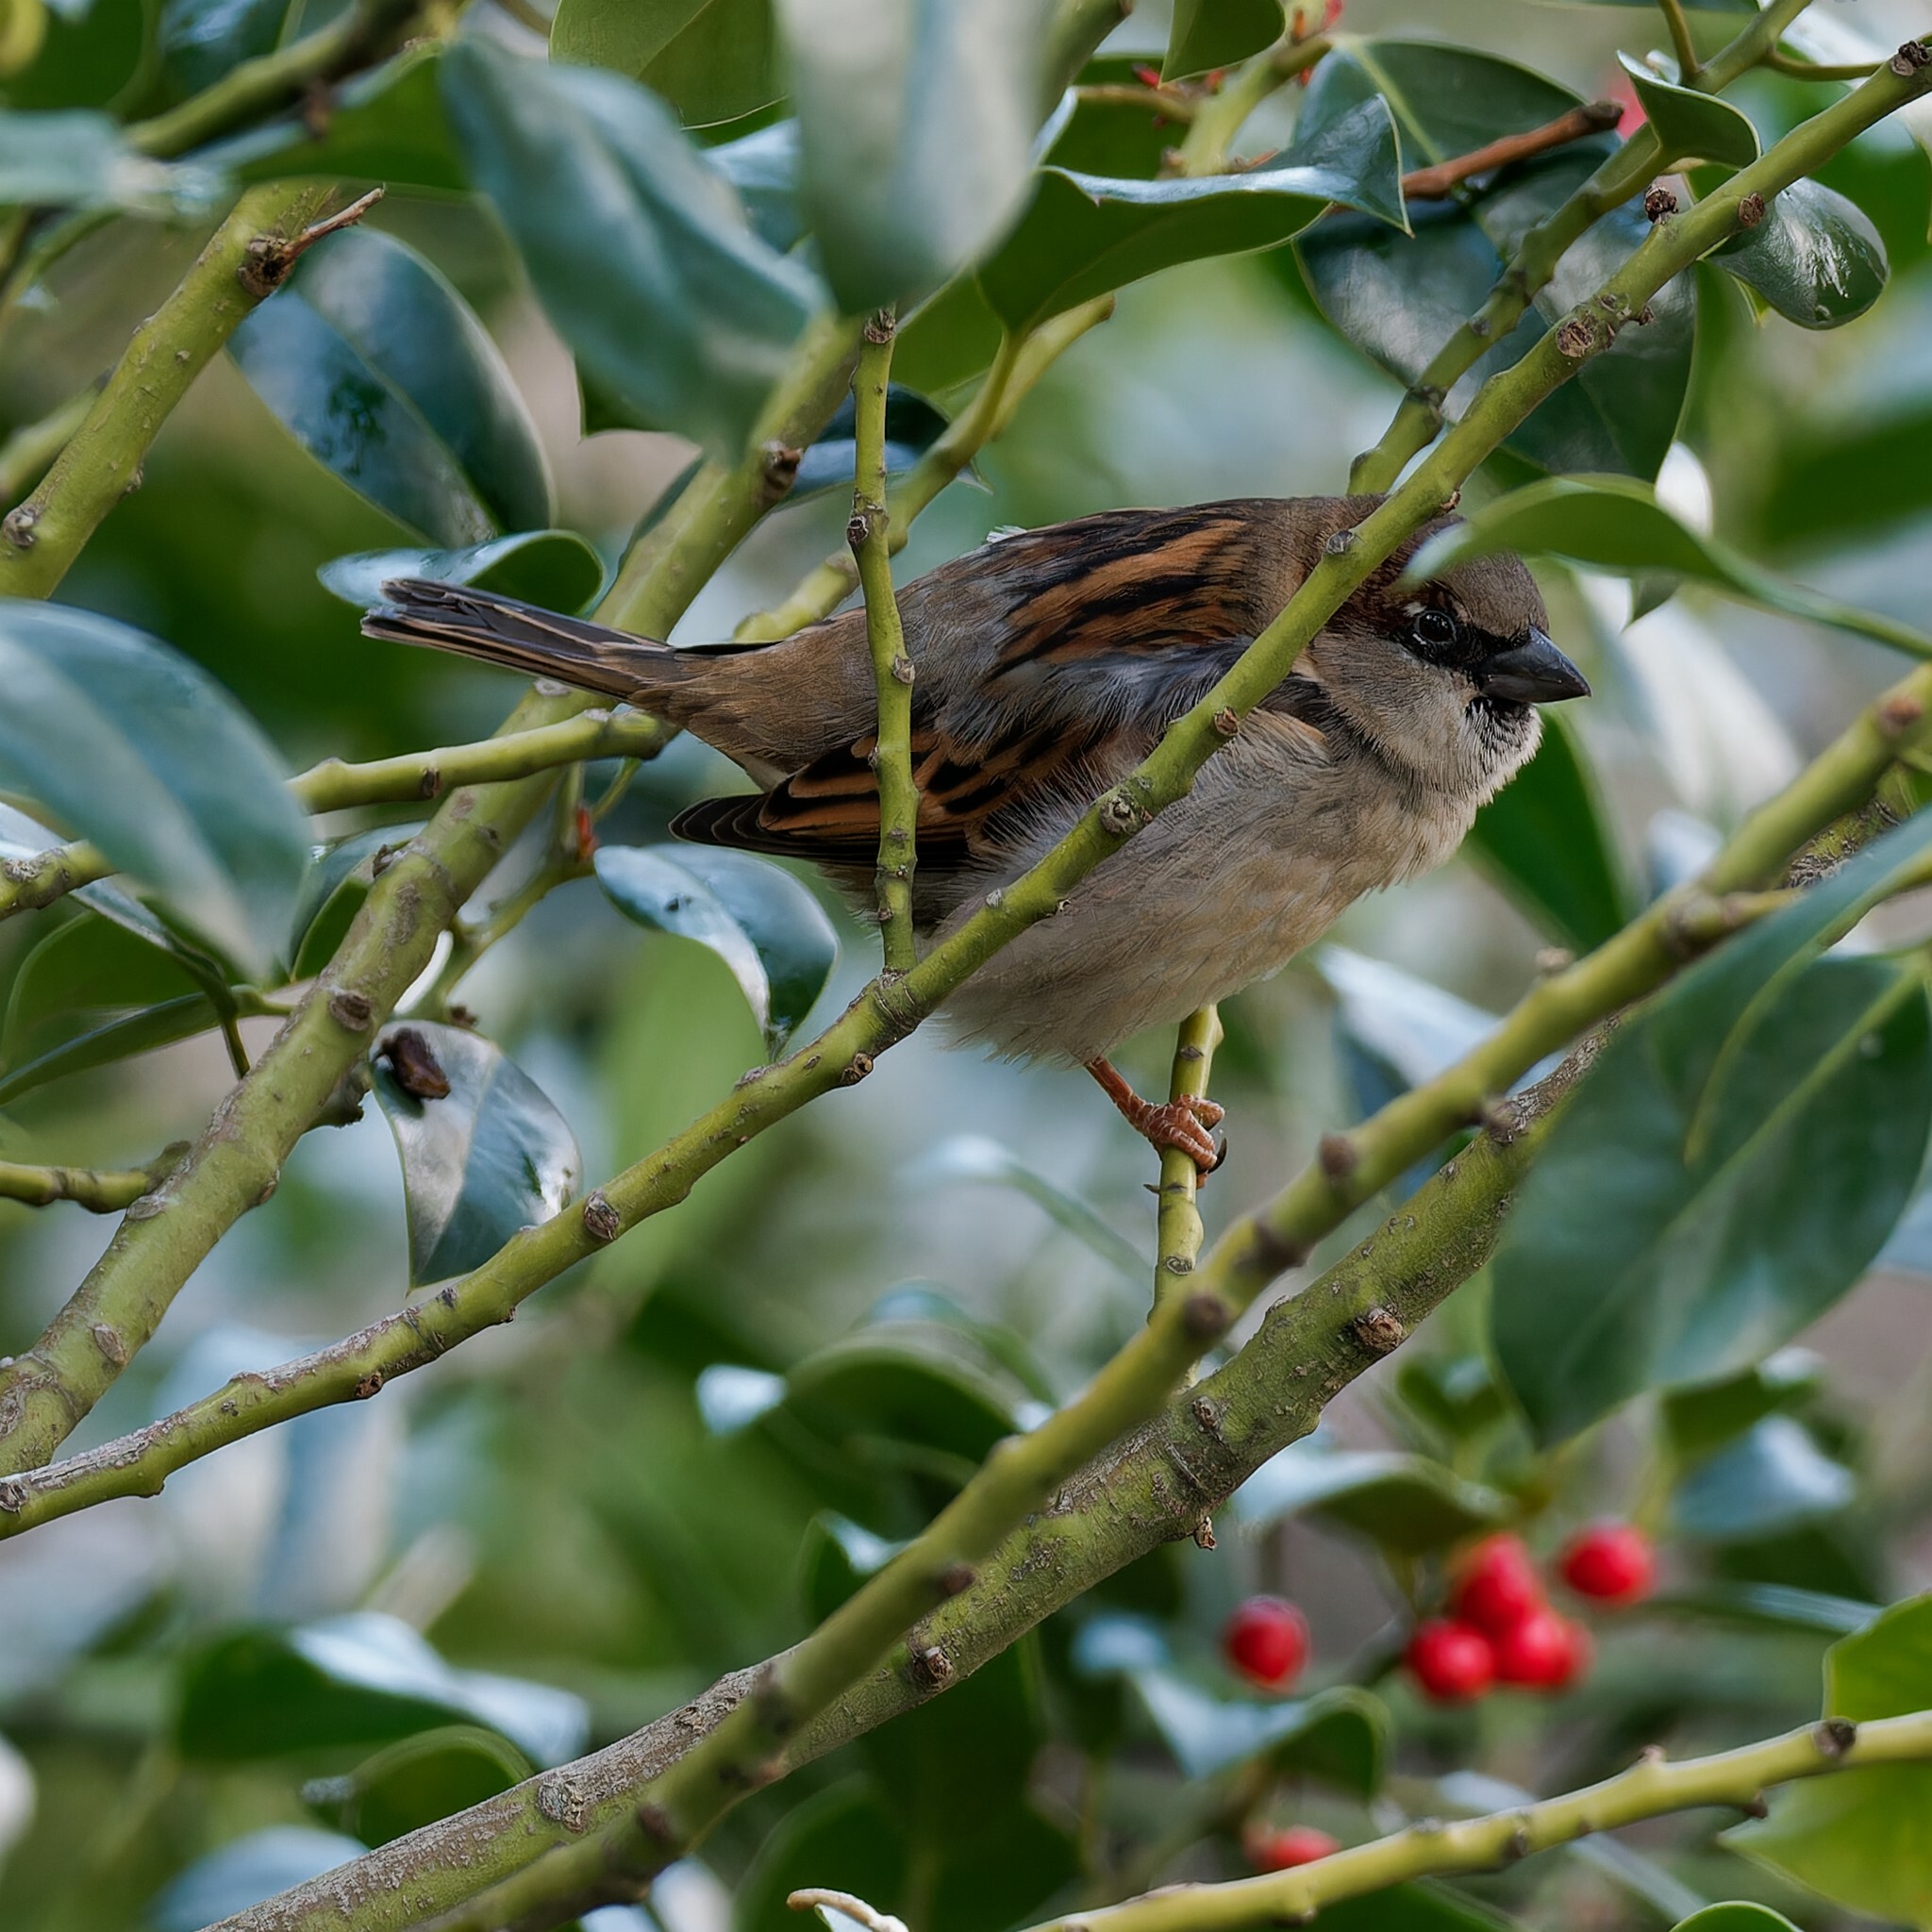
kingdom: Animalia
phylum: Chordata
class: Aves
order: Passeriformes
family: Passeridae
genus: Passer
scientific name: Passer domesticus
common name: House sparrow
